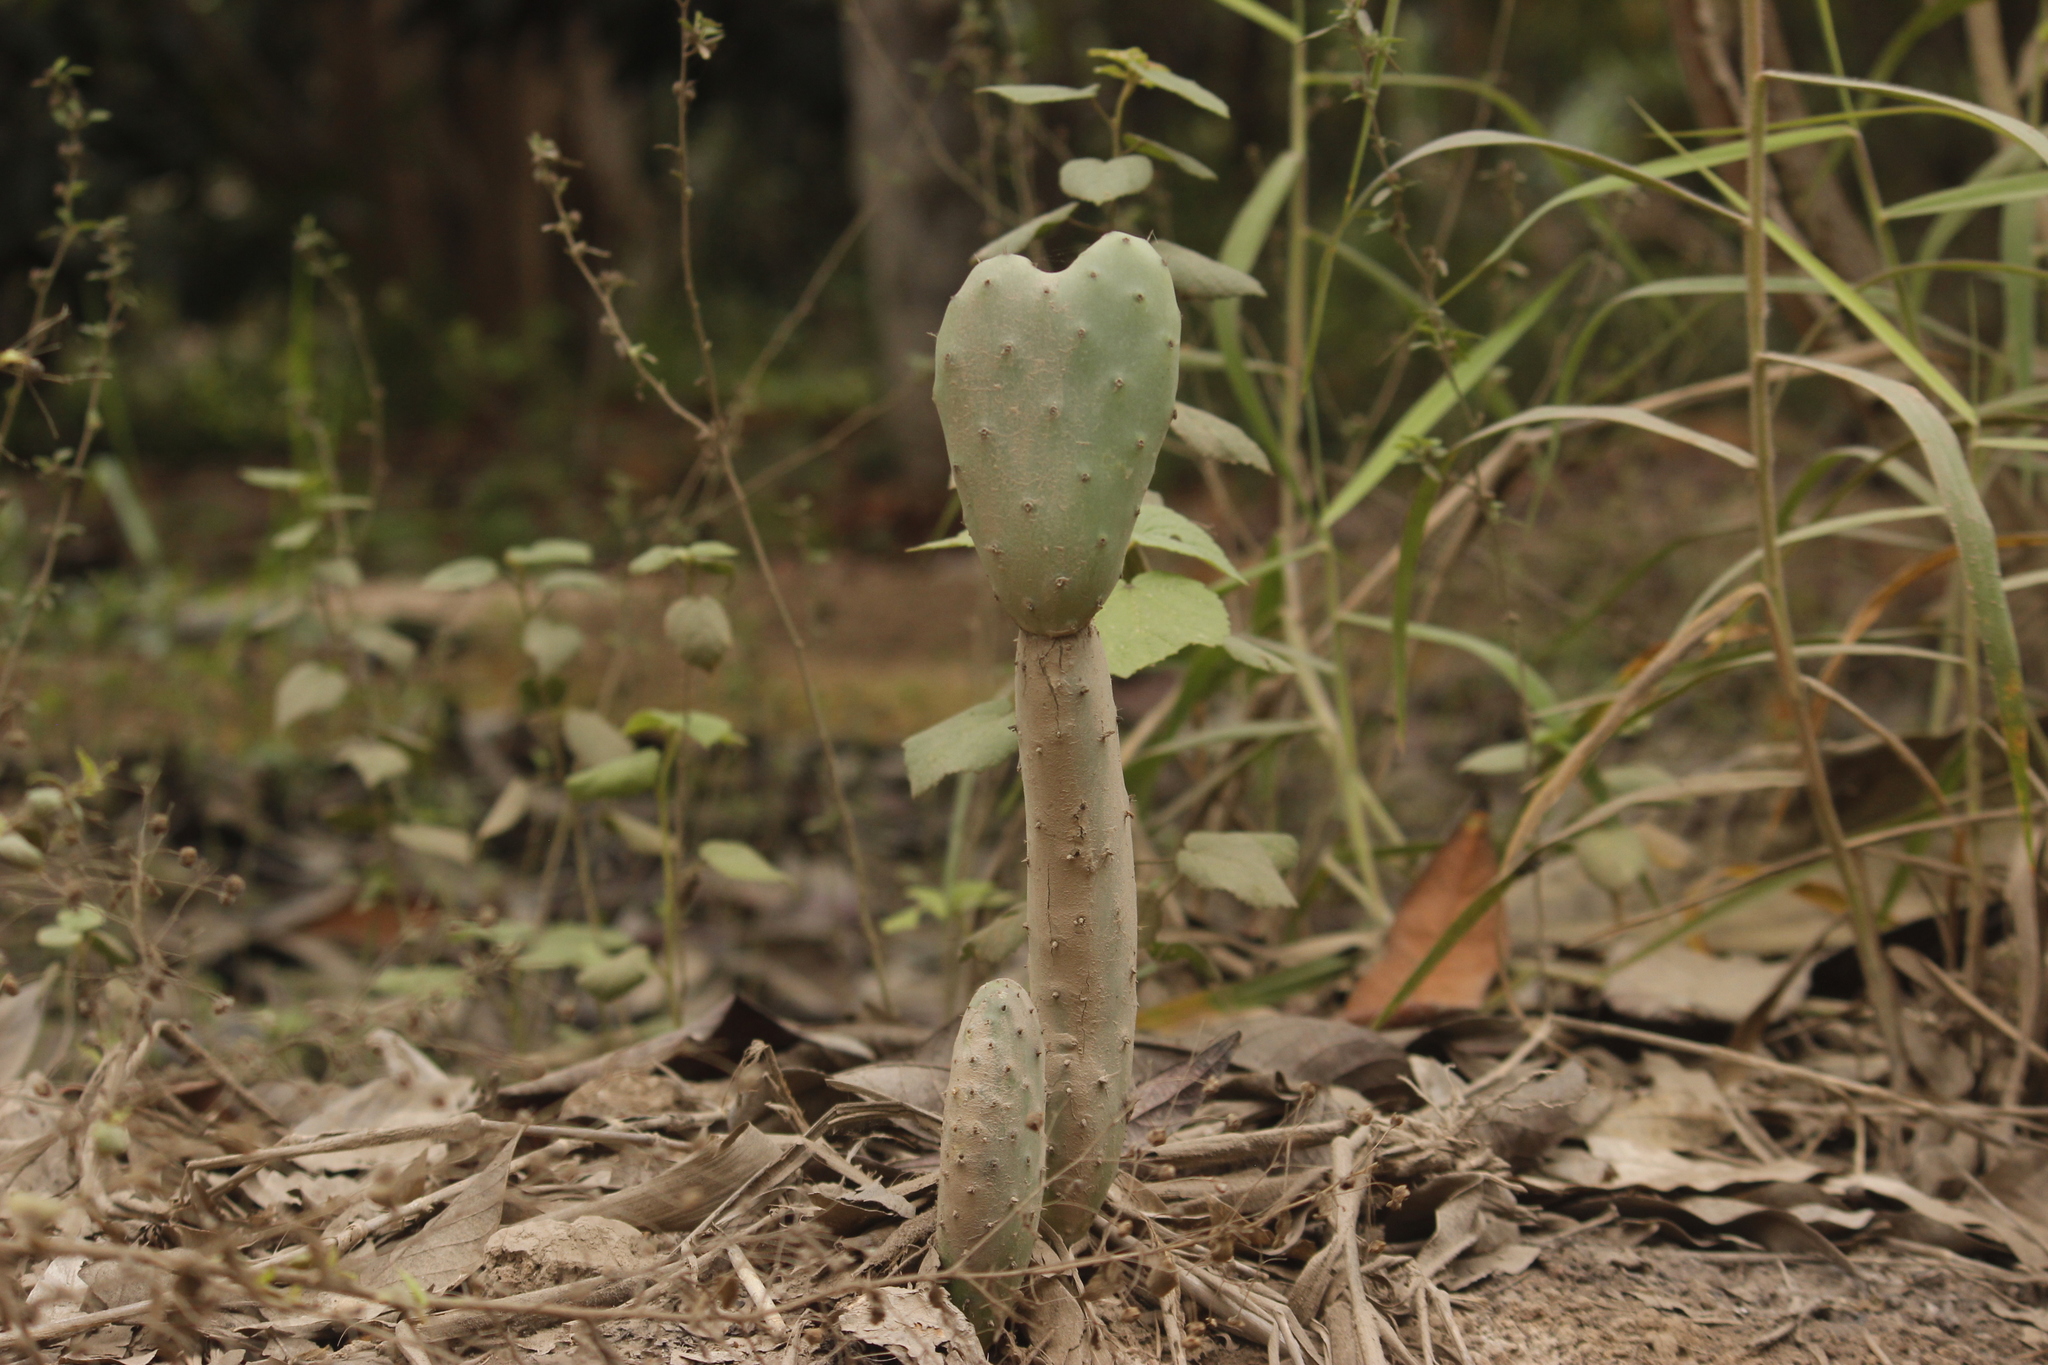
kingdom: Plantae
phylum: Tracheophyta
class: Magnoliopsida
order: Caryophyllales
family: Cactaceae
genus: Opuntia
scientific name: Opuntia ficus-indica
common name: Barbary fig
